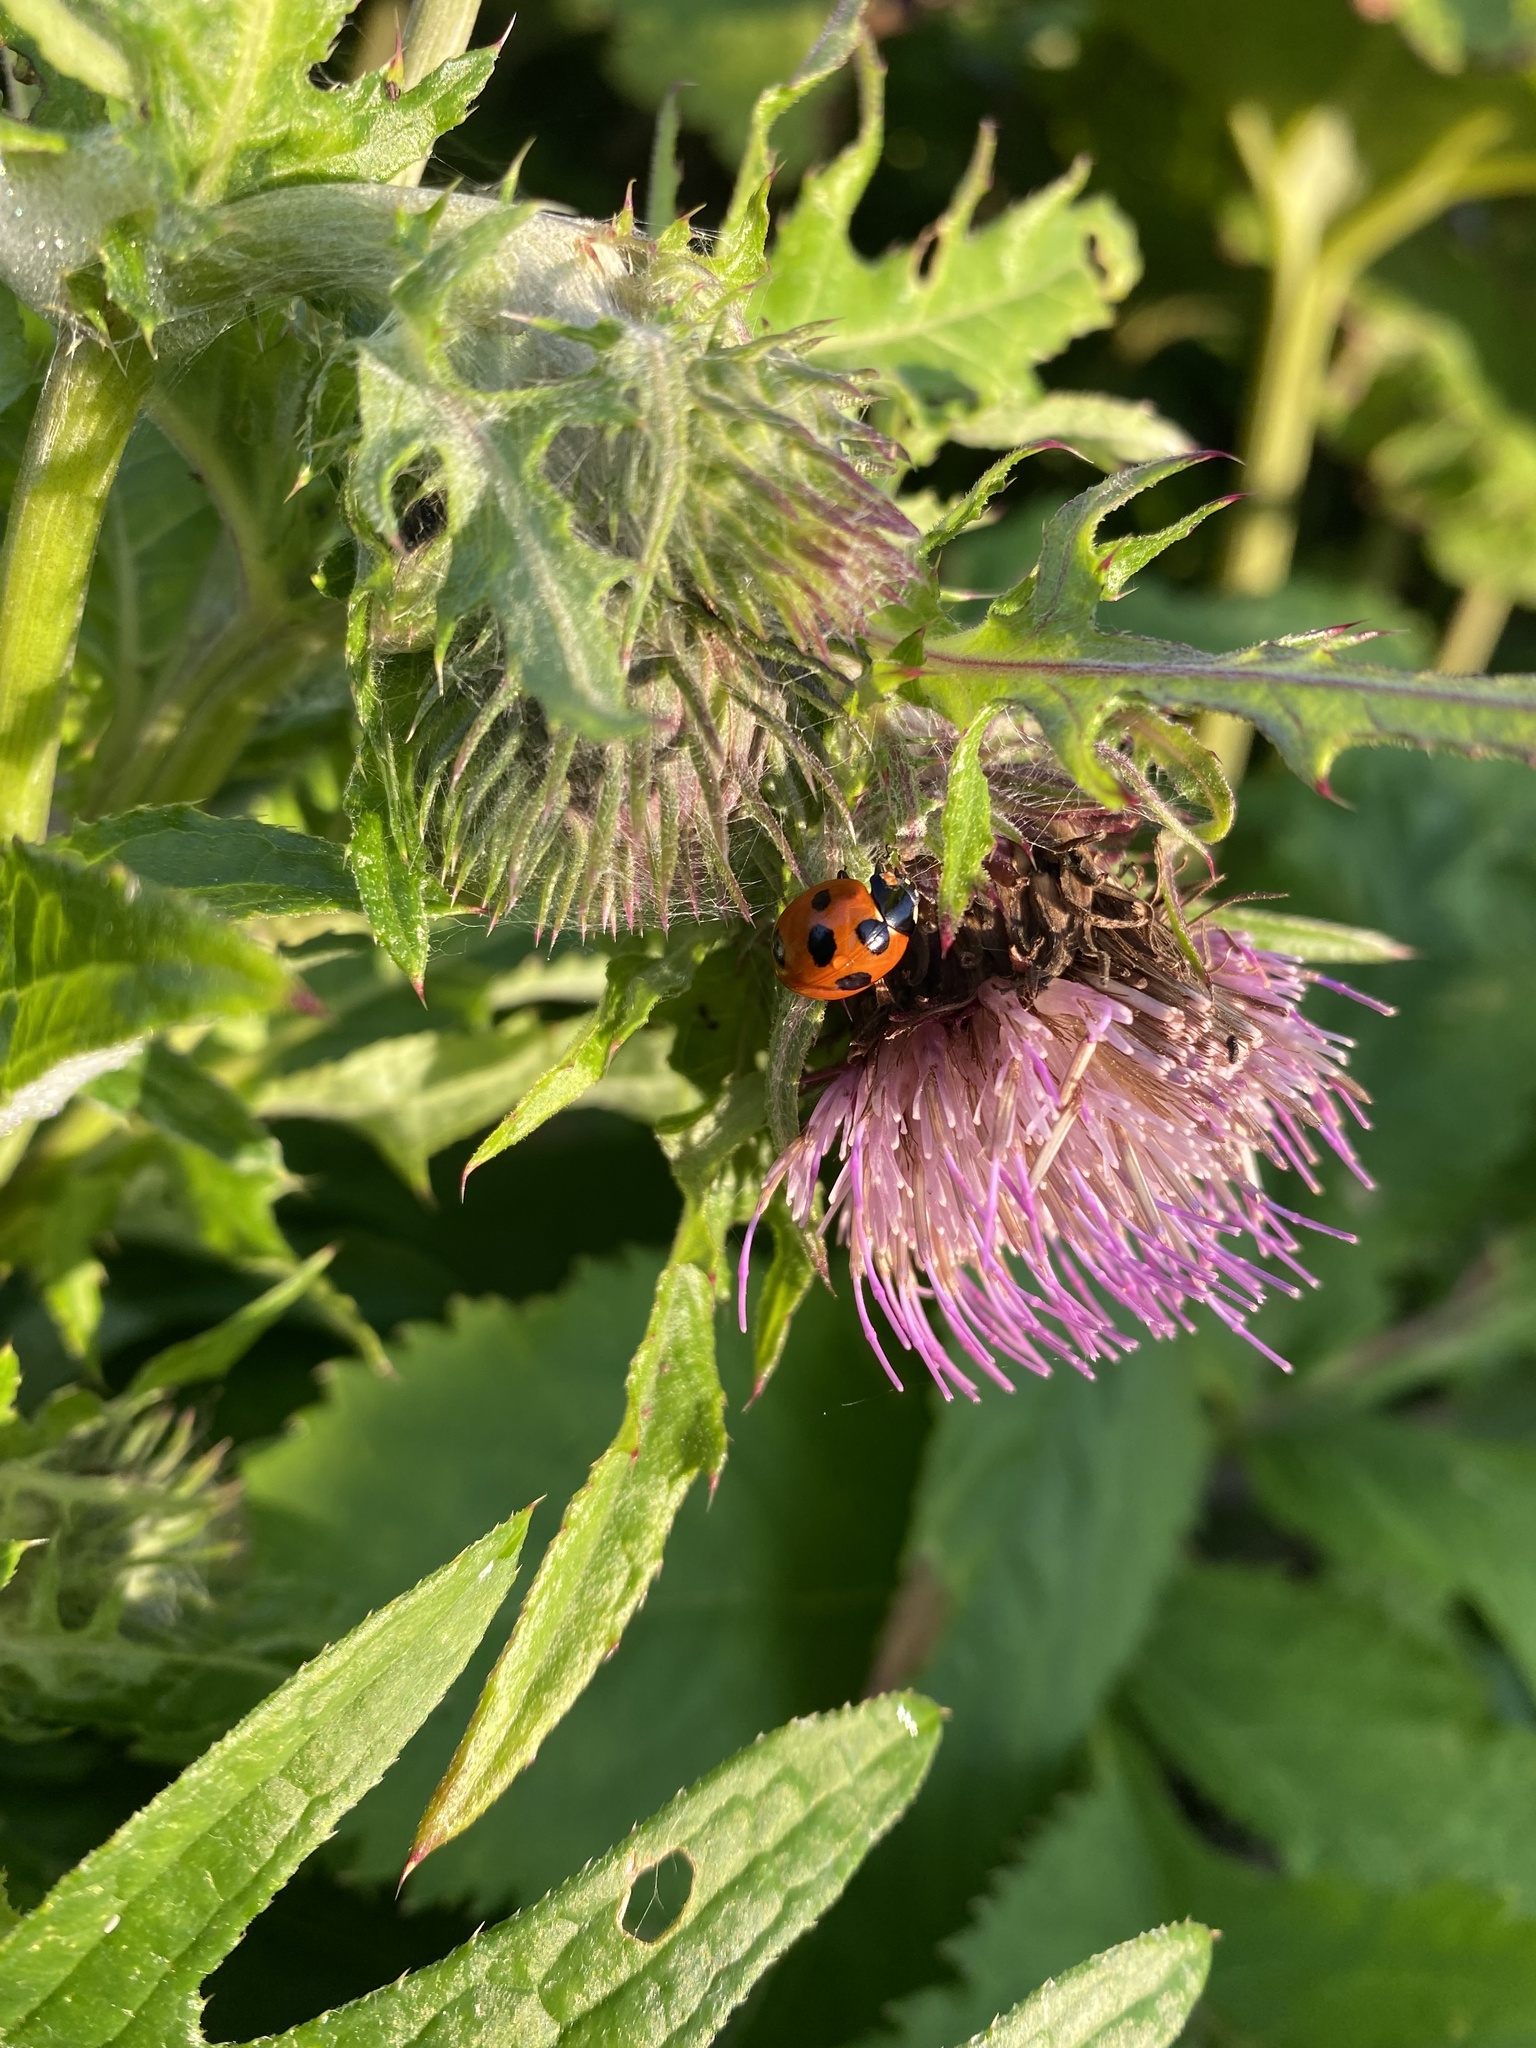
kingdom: Plantae
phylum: Tracheophyta
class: Magnoliopsida
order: Asterales
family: Asteraceae
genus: Cirsium
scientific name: Cirsium kamtschaticum
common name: Kamchatka thistle
